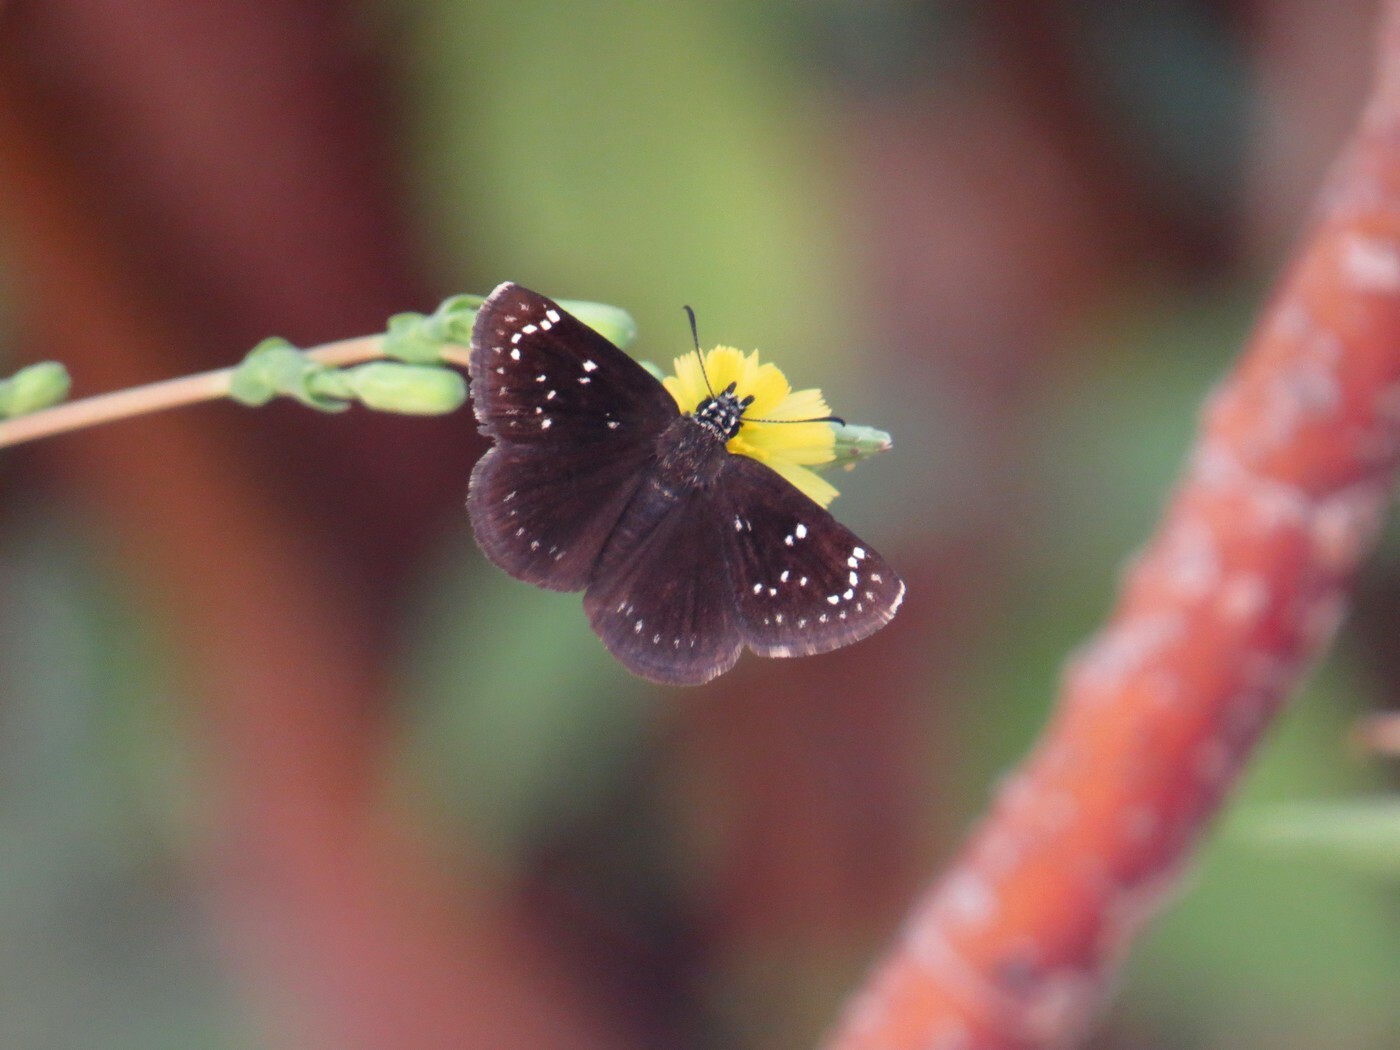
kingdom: Animalia
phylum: Arthropoda
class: Insecta
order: Lepidoptera
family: Hesperiidae
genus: Pholisora
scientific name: Pholisora catullus
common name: Common sootywing
